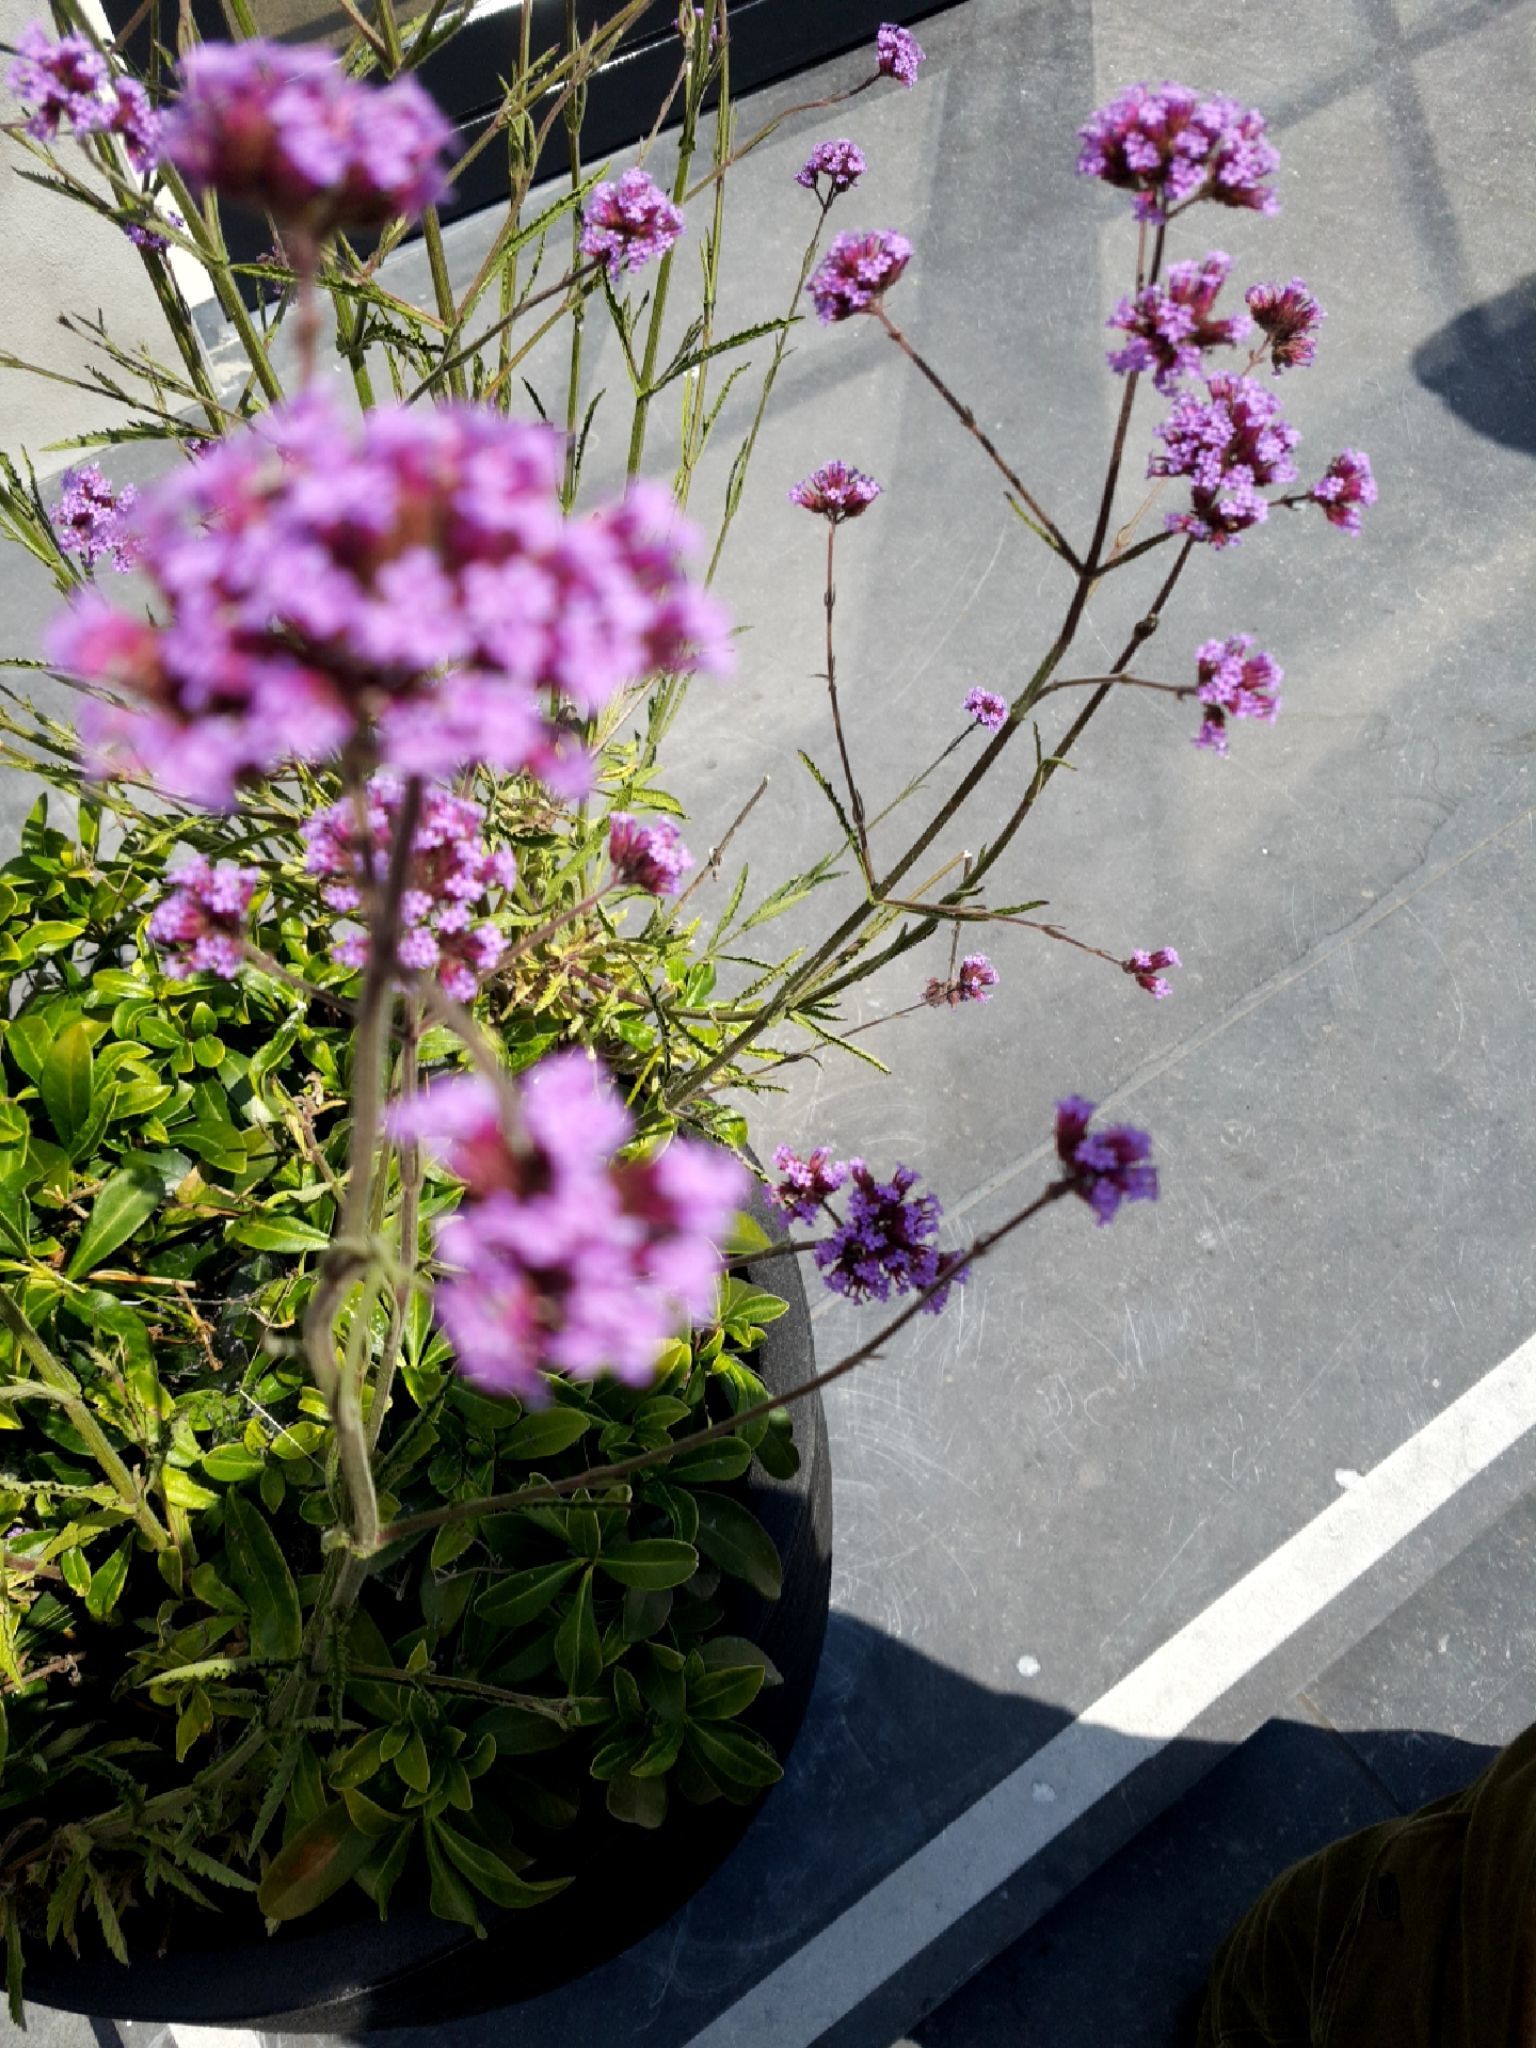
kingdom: Plantae
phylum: Tracheophyta
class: Magnoliopsida
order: Lamiales
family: Verbenaceae
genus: Verbena
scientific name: Verbena bonariensis
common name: Purpletop vervain
